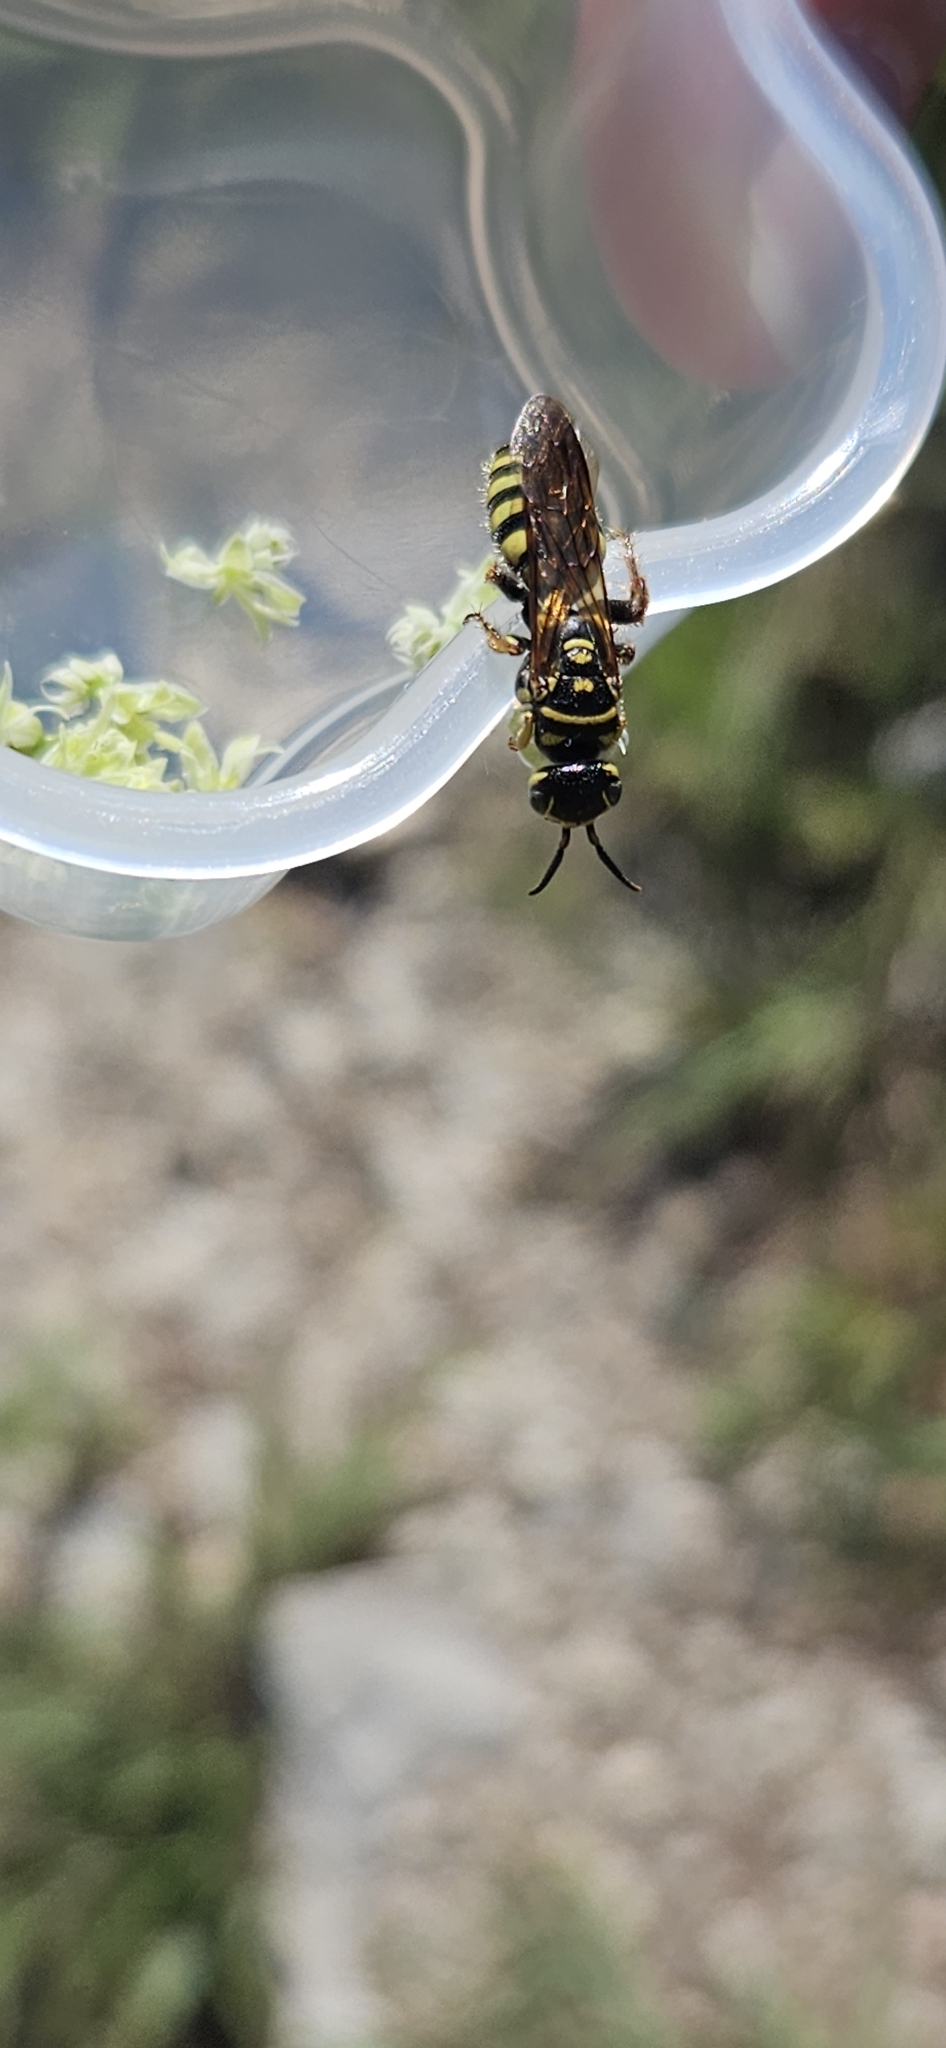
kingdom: Animalia
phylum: Arthropoda
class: Insecta
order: Hymenoptera
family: Tiphiidae
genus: Myzinum
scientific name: Myzinum quinquecinctum
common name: Five-banded thynnid wasp
